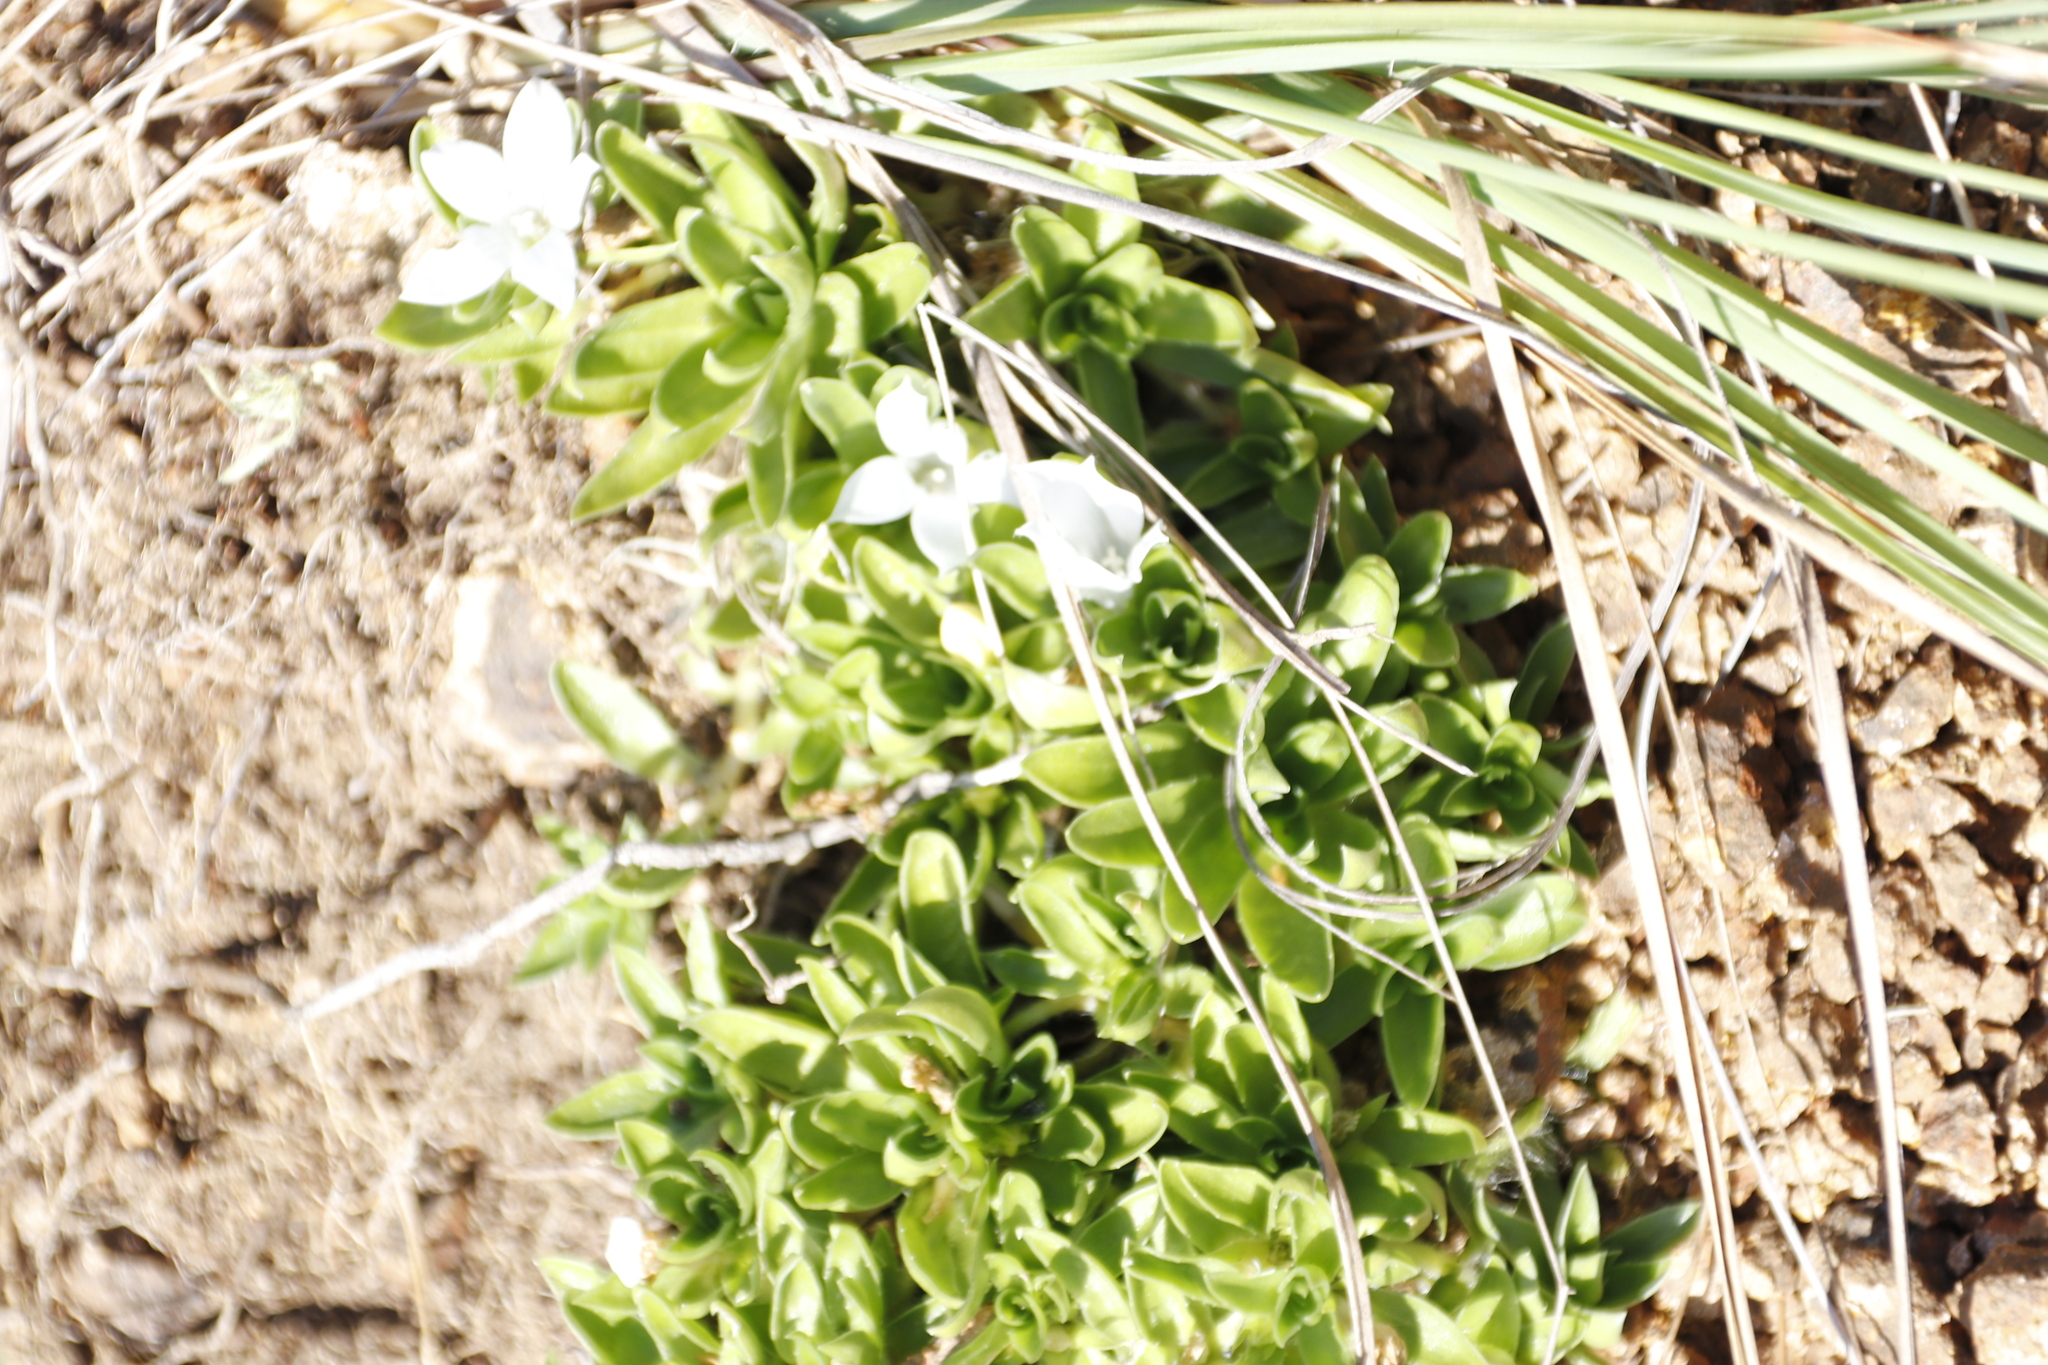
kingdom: Plantae
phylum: Tracheophyta
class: Magnoliopsida
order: Asterales
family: Campanulaceae
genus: Craterocapsa
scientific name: Craterocapsa tarsodes
